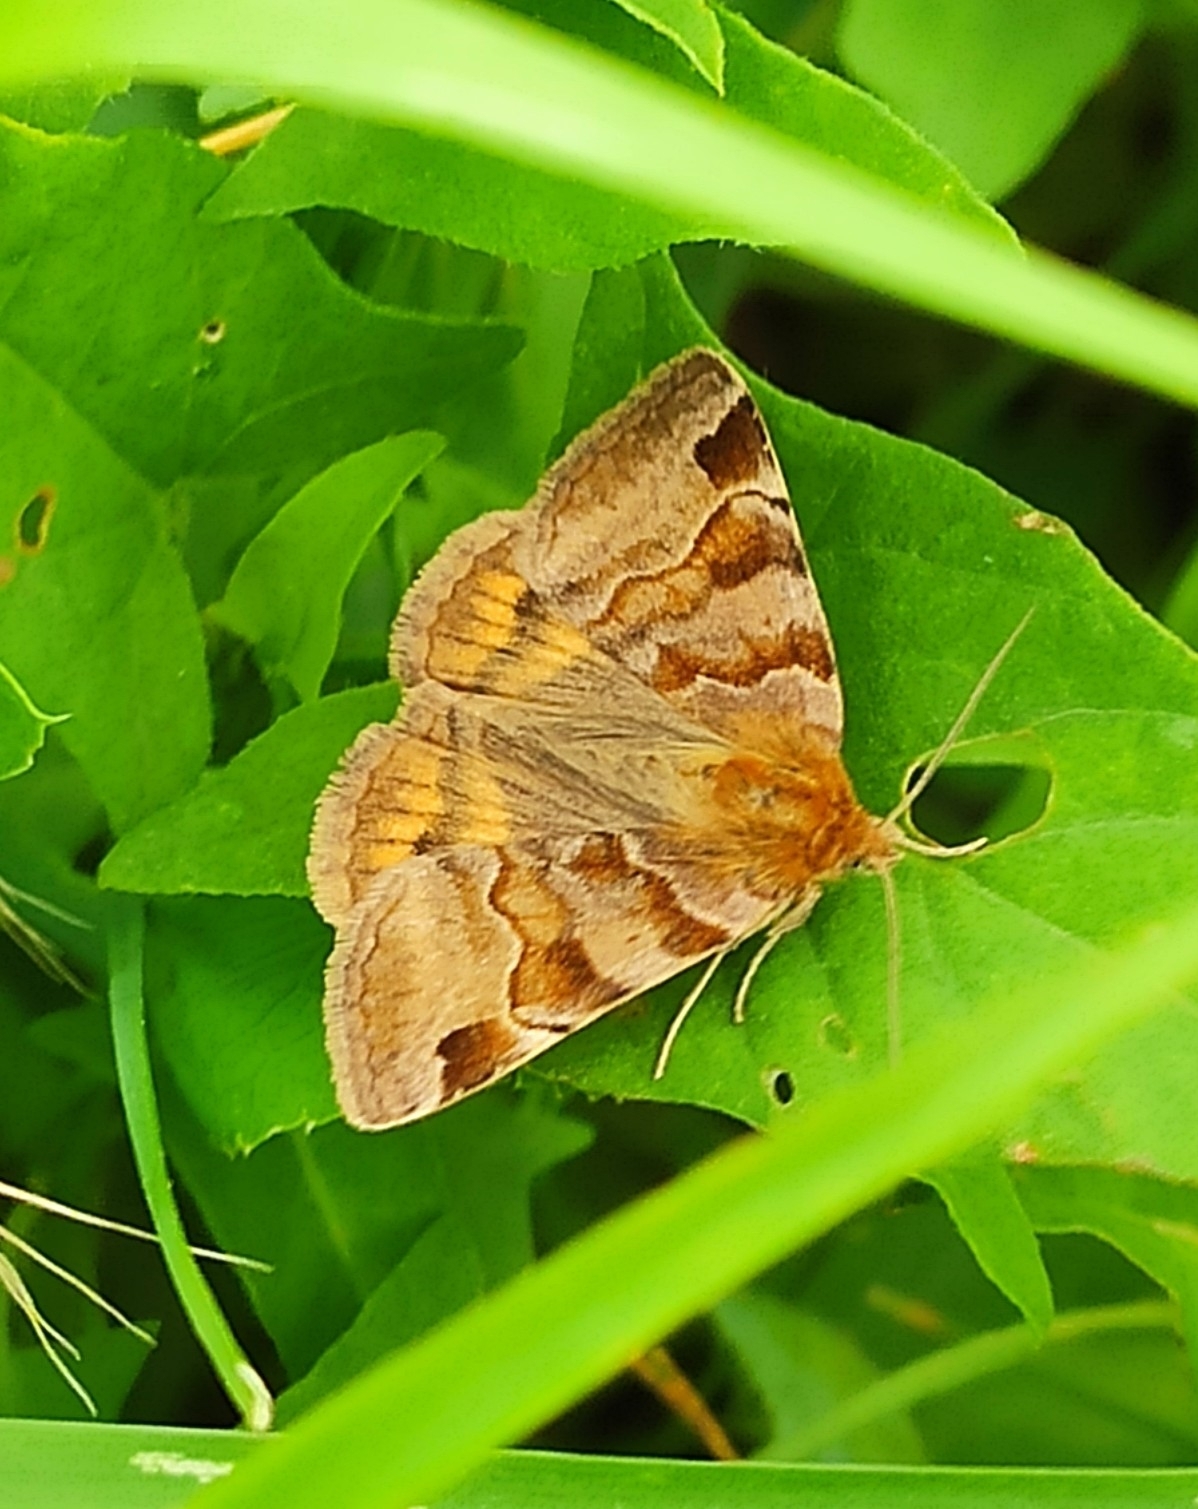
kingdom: Animalia
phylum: Arthropoda
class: Insecta
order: Lepidoptera
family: Erebidae
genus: Euclidia
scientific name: Euclidia glyphica
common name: Burnet companion
